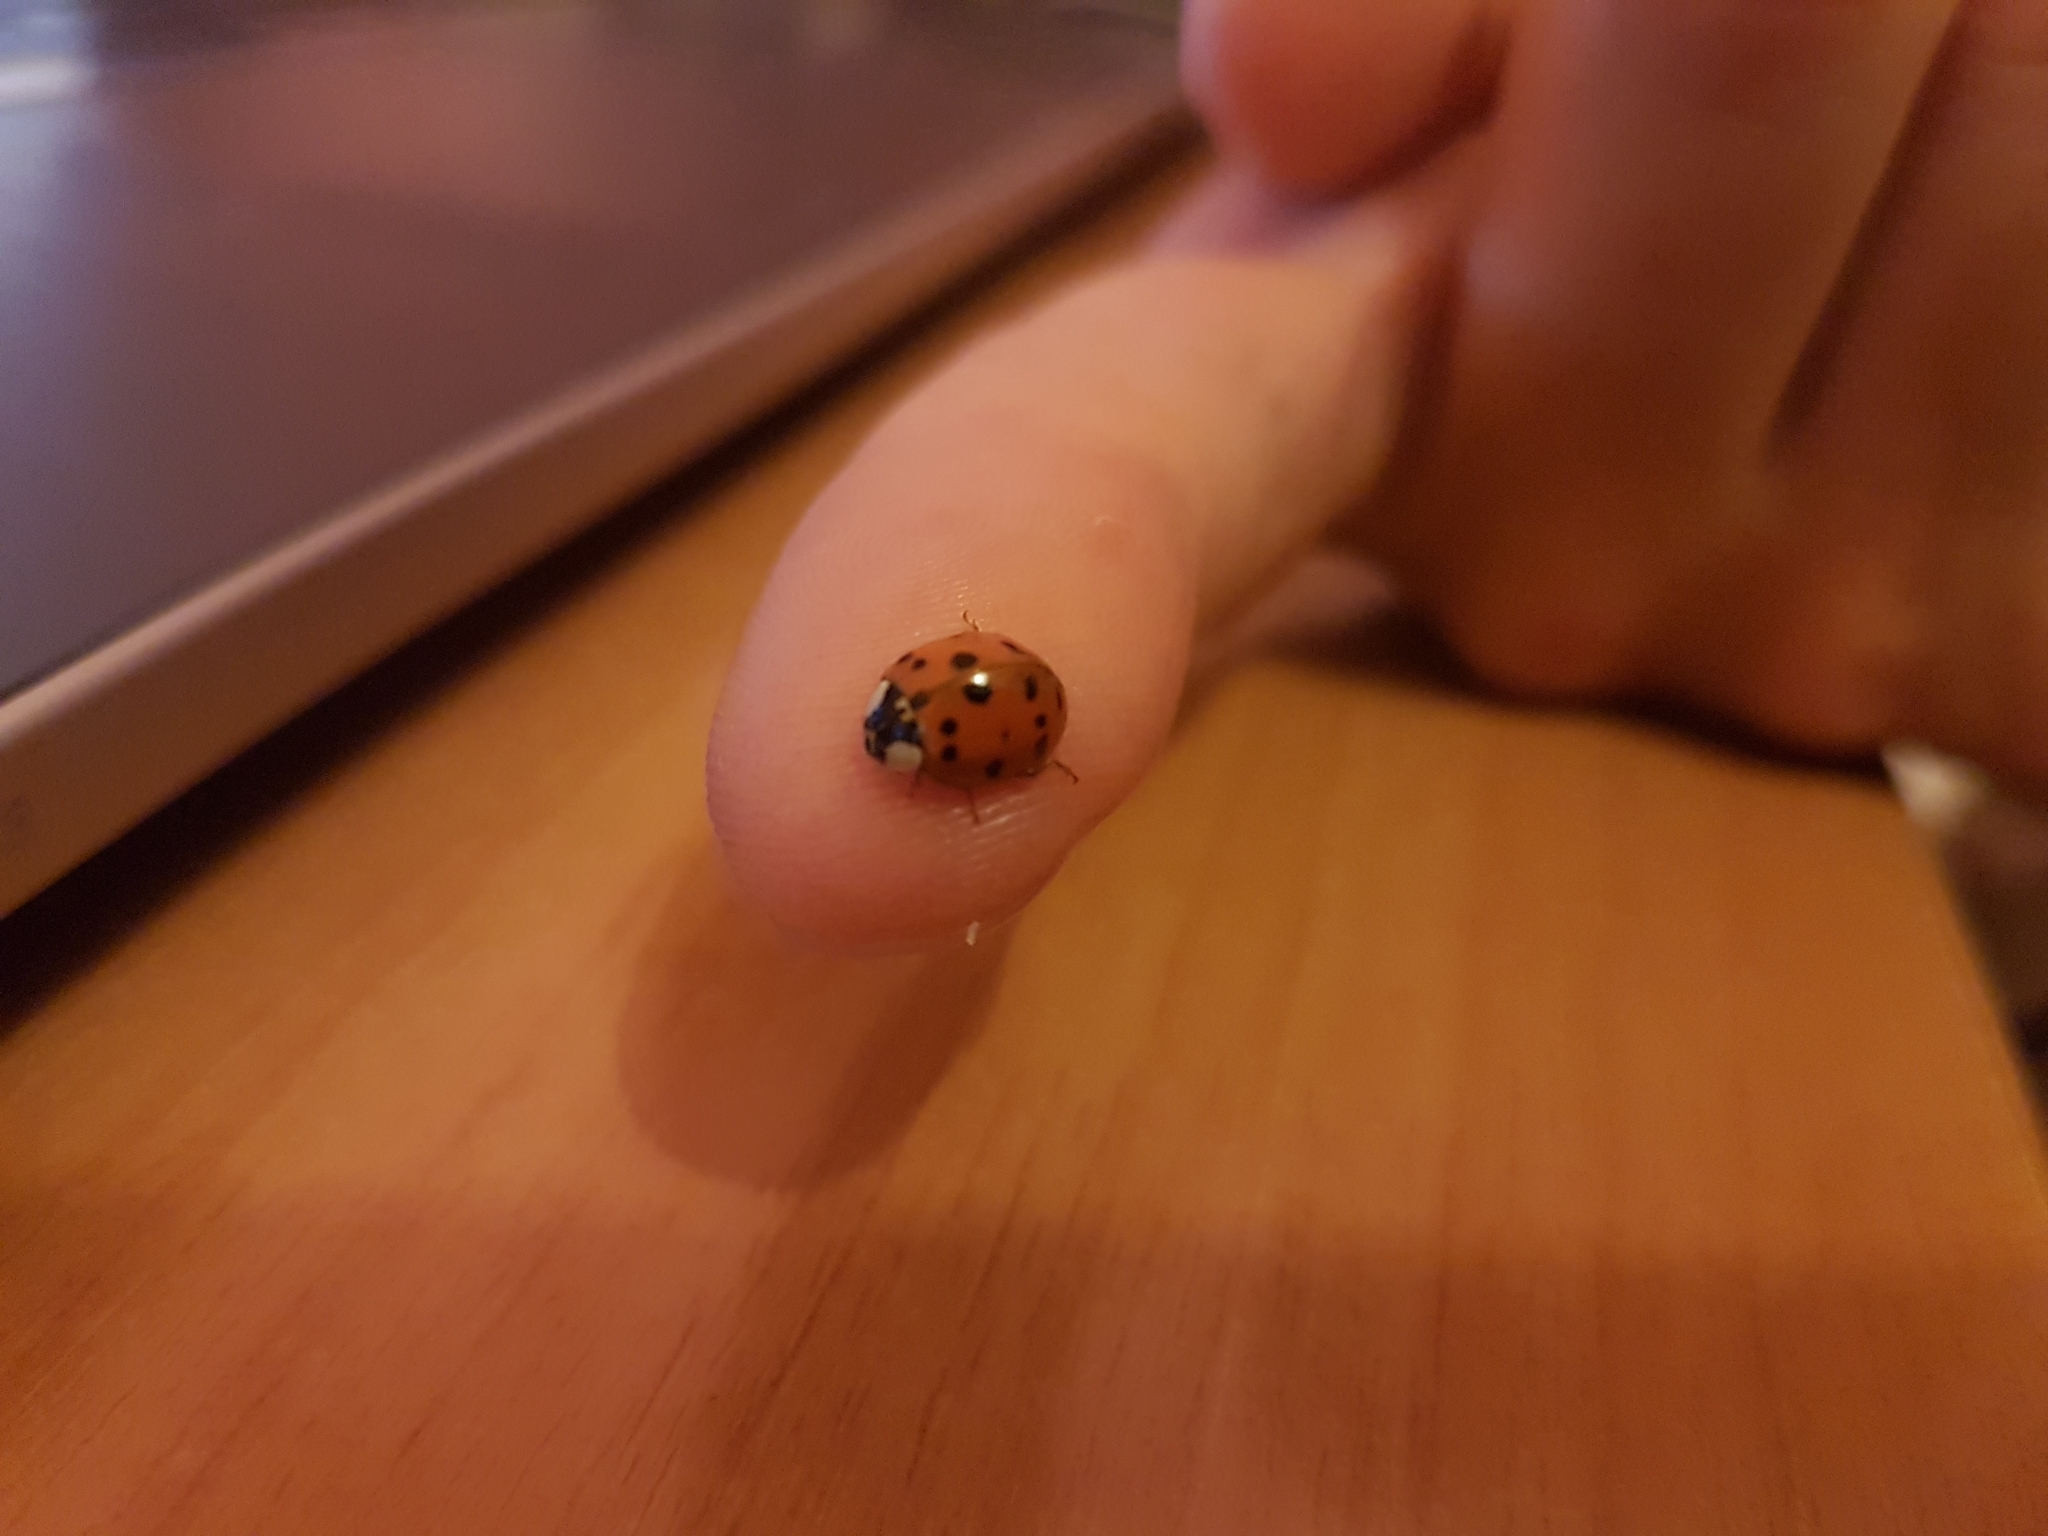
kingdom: Animalia
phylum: Arthropoda
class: Insecta
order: Coleoptera
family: Coccinellidae
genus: Harmonia
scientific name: Harmonia axyridis
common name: Harlequin ladybird
